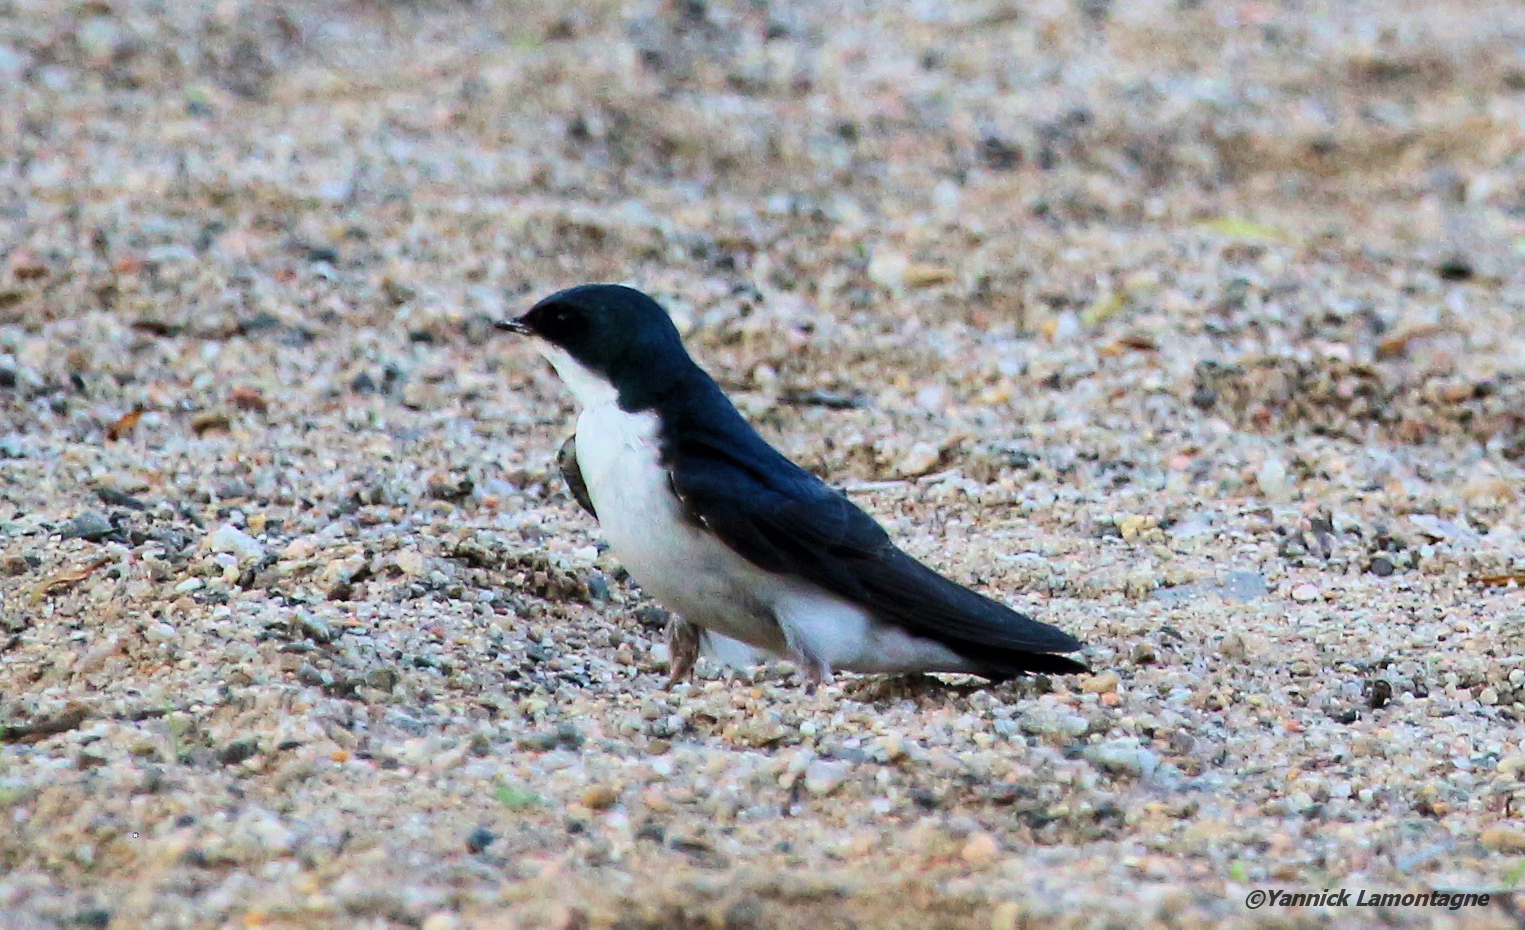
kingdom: Animalia
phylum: Chordata
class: Aves
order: Passeriformes
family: Hirundinidae
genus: Tachycineta
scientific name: Tachycineta bicolor
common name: Tree swallow
